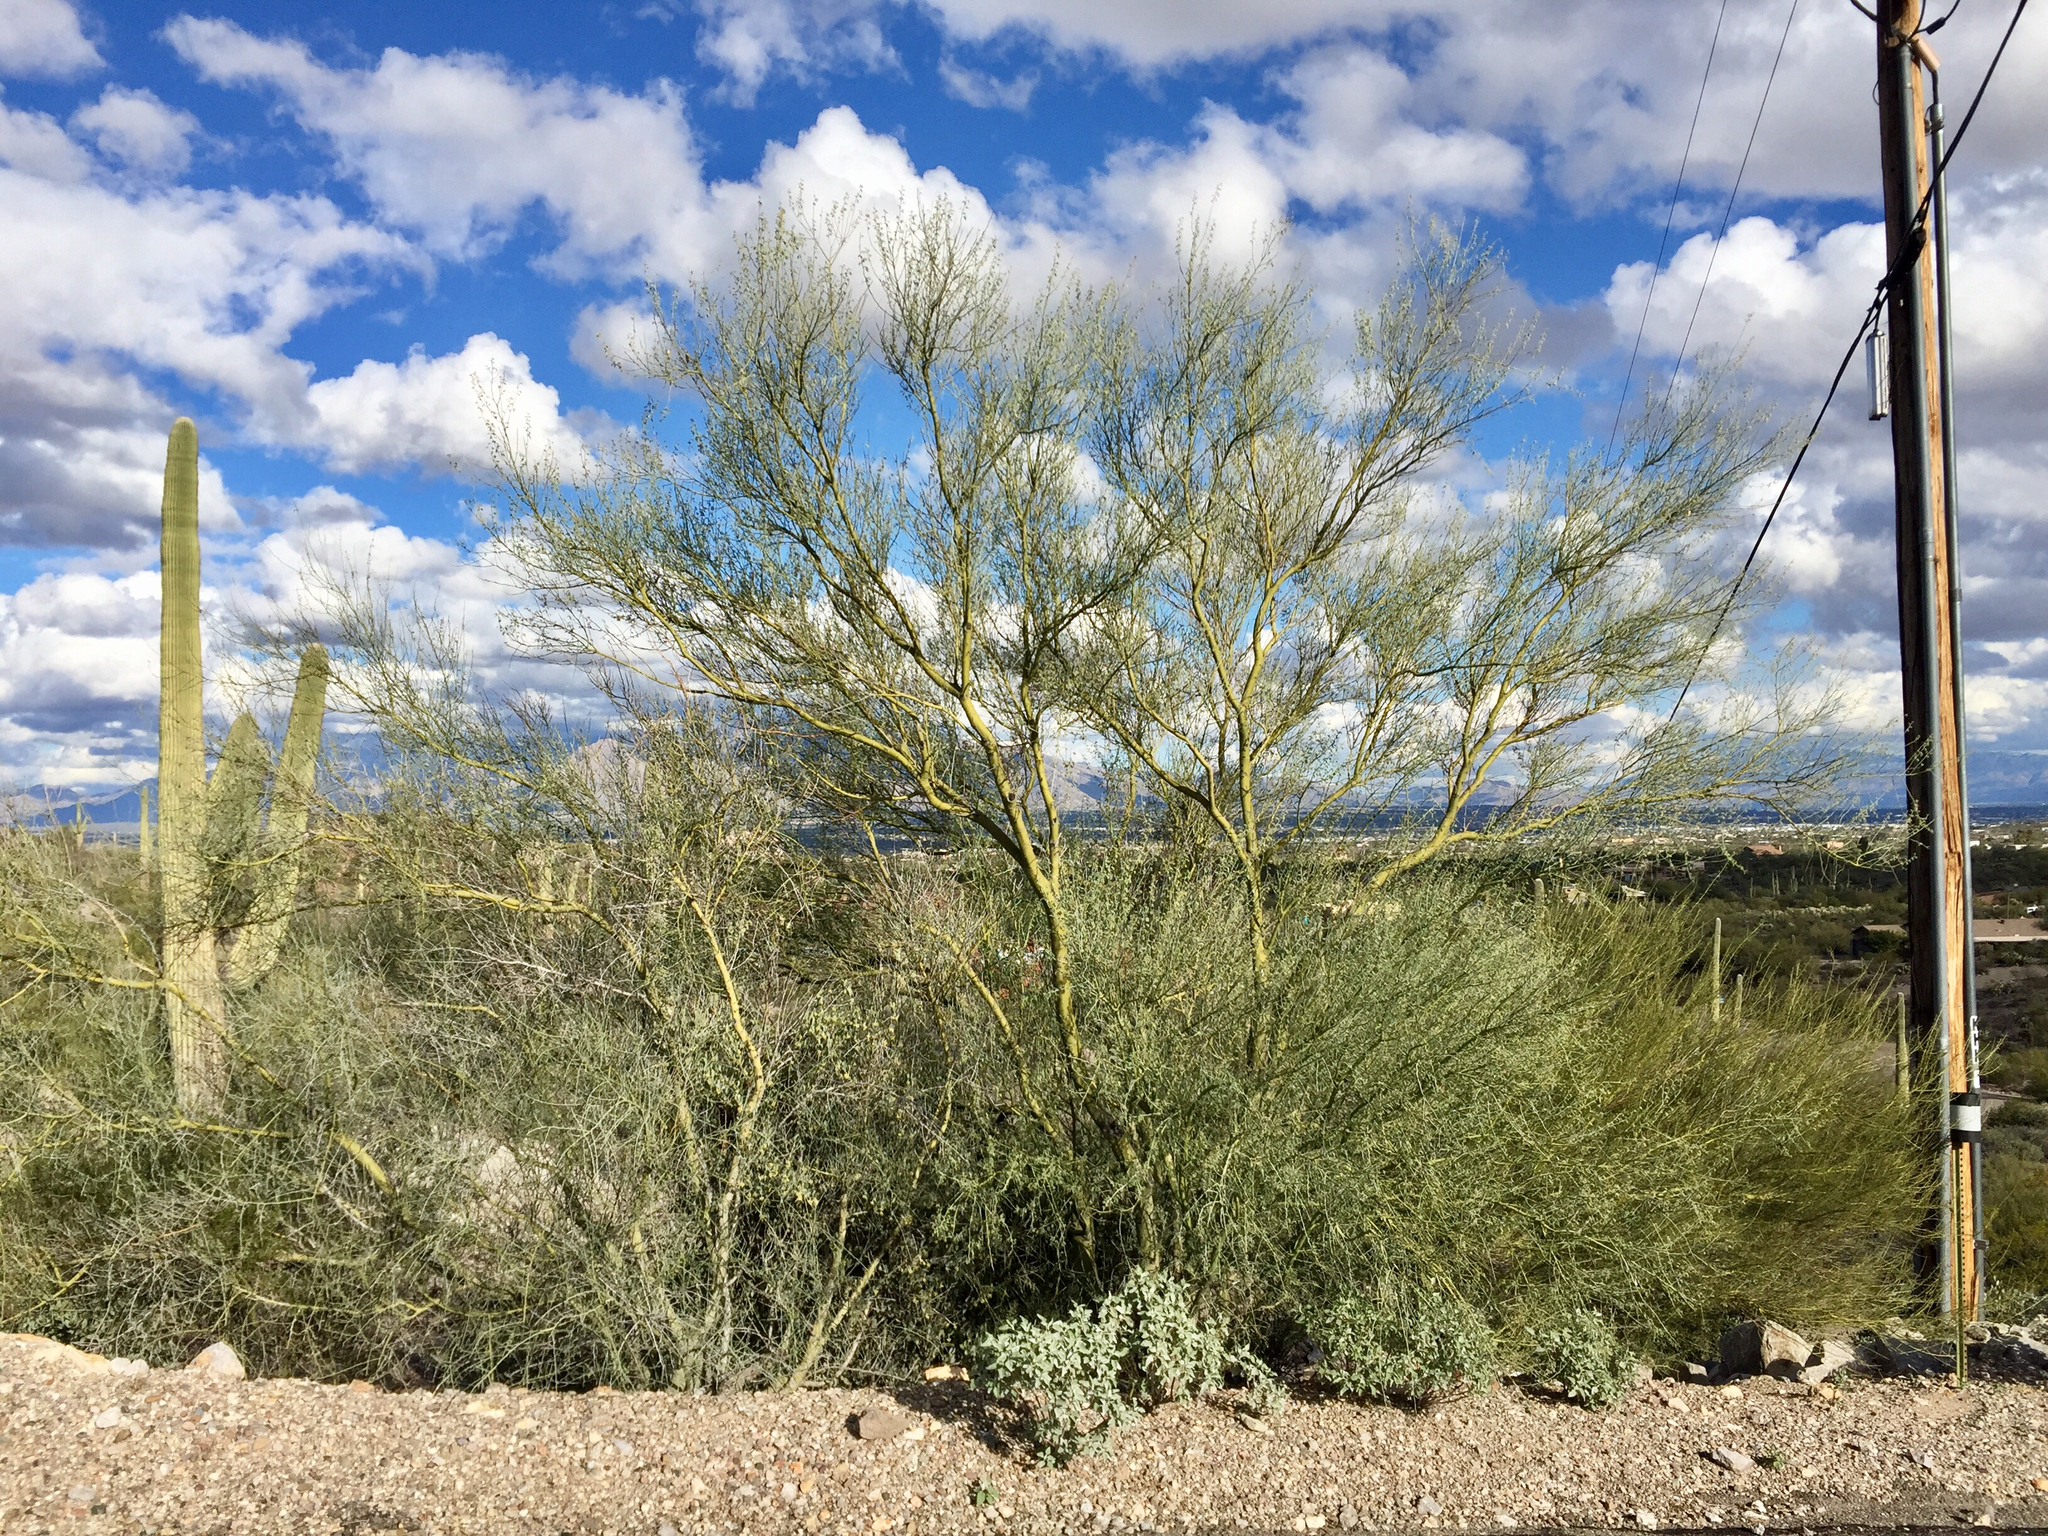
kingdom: Plantae
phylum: Tracheophyta
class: Magnoliopsida
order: Fabales
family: Fabaceae
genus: Parkinsonia
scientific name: Parkinsonia microphylla
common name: Yellow paloverde
